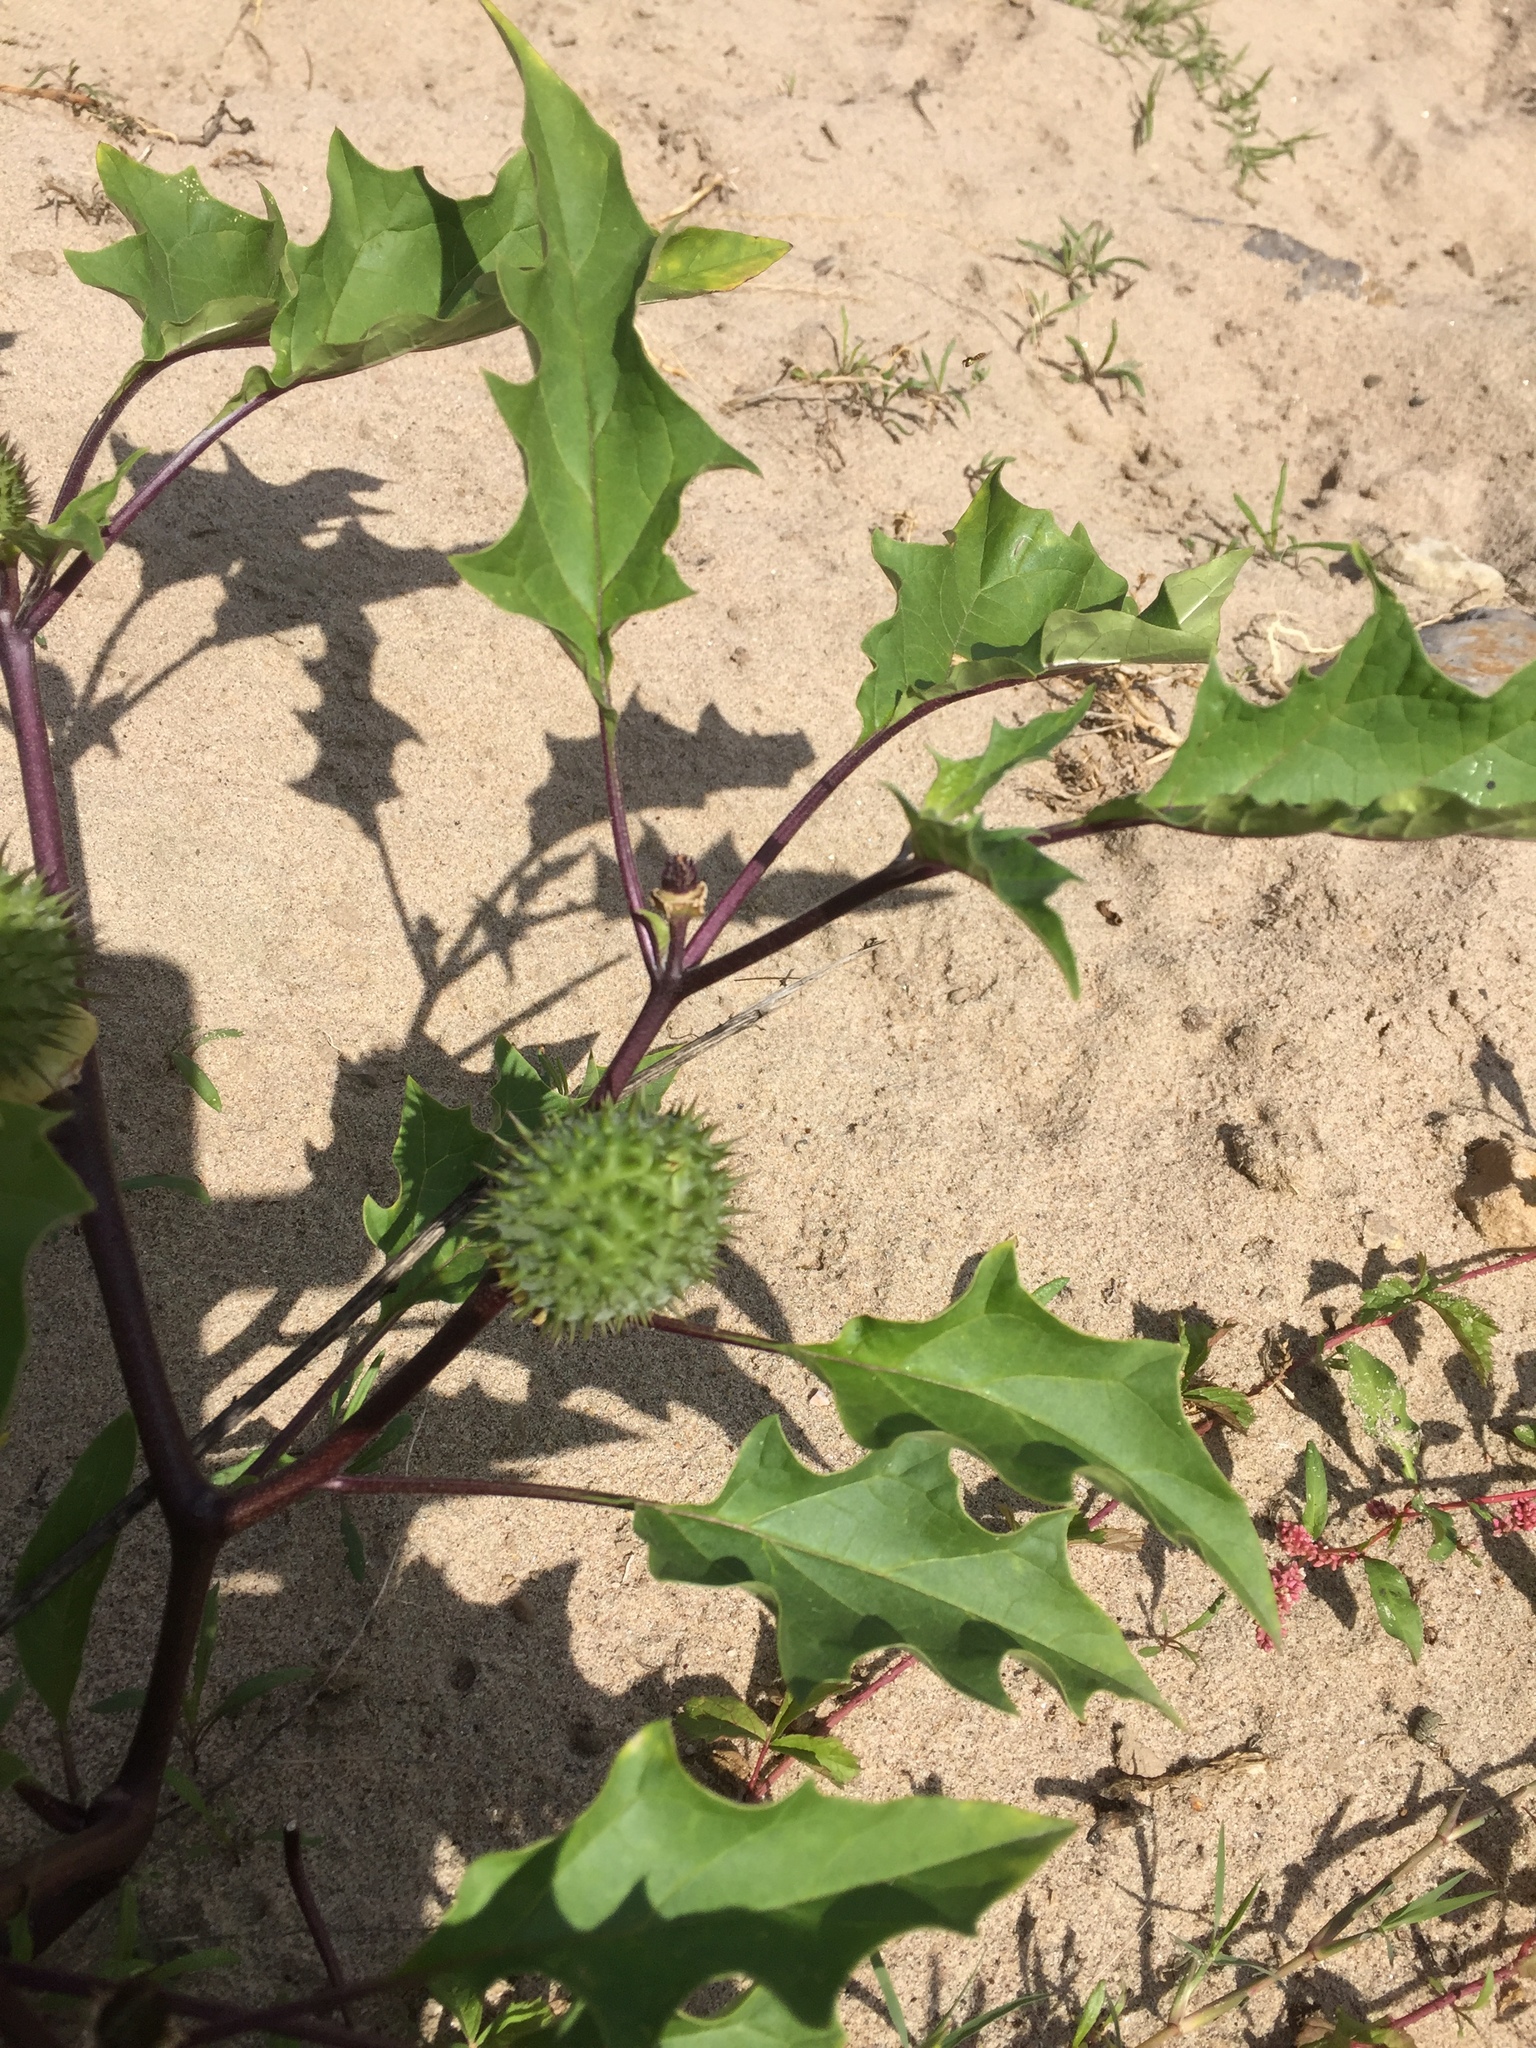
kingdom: Plantae
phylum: Tracheophyta
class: Magnoliopsida
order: Solanales
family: Solanaceae
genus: Datura
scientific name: Datura stramonium
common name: Thorn-apple
